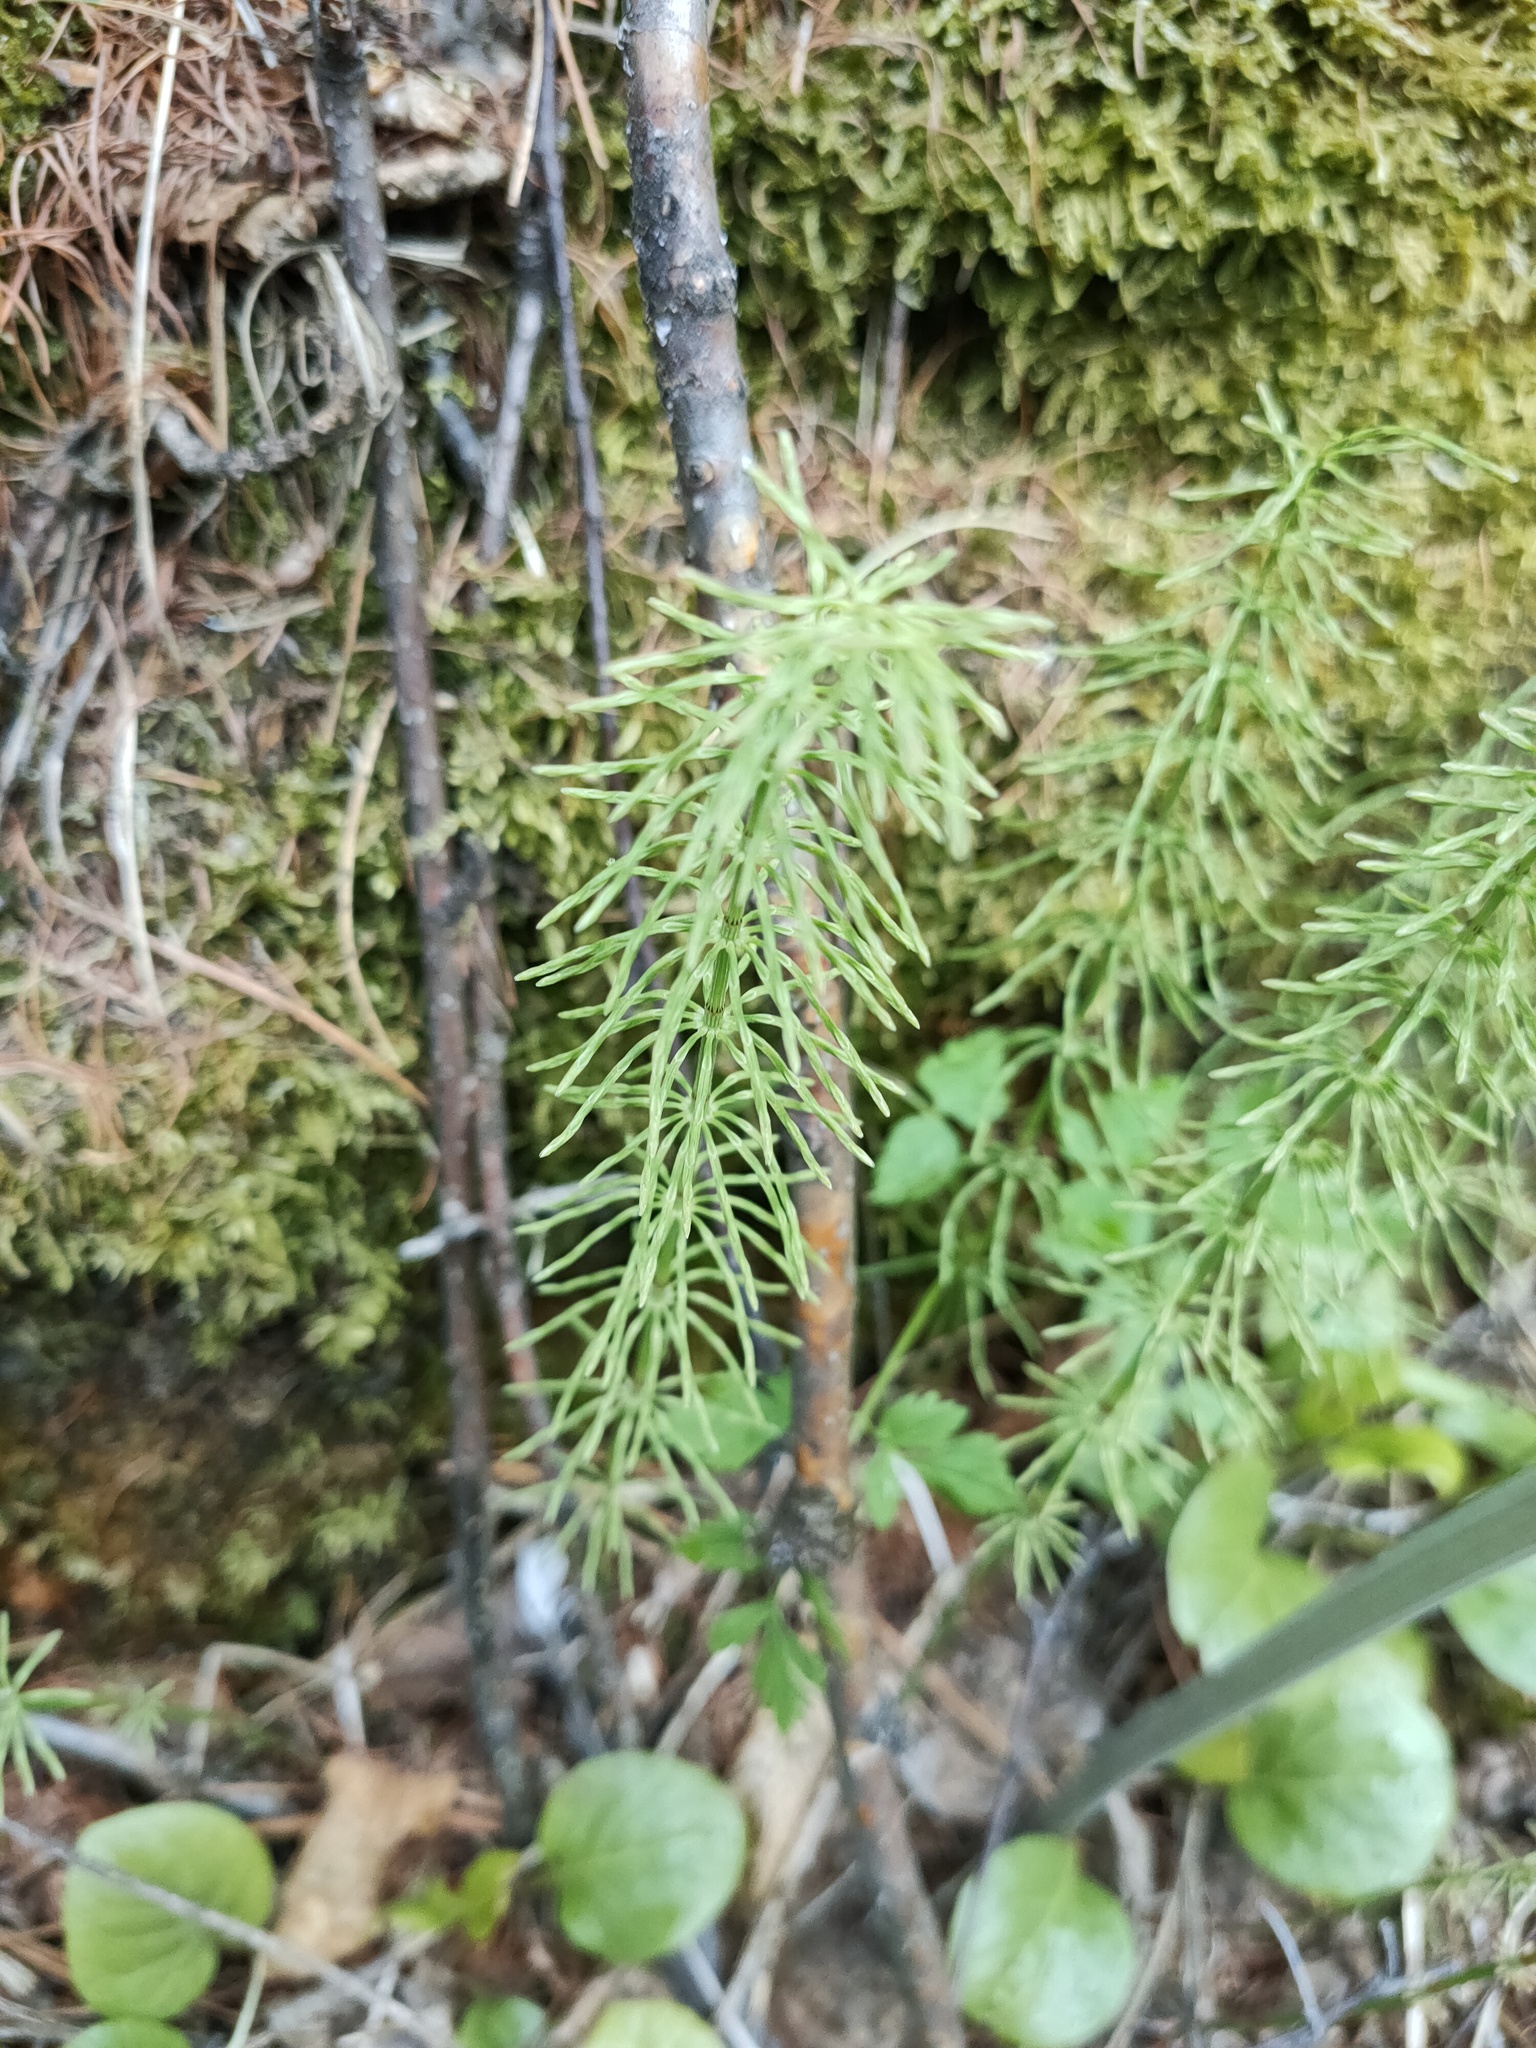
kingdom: Plantae
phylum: Tracheophyta
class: Polypodiopsida
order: Equisetales
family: Equisetaceae
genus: Equisetum
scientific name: Equisetum pratense
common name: Meadow horsetail
